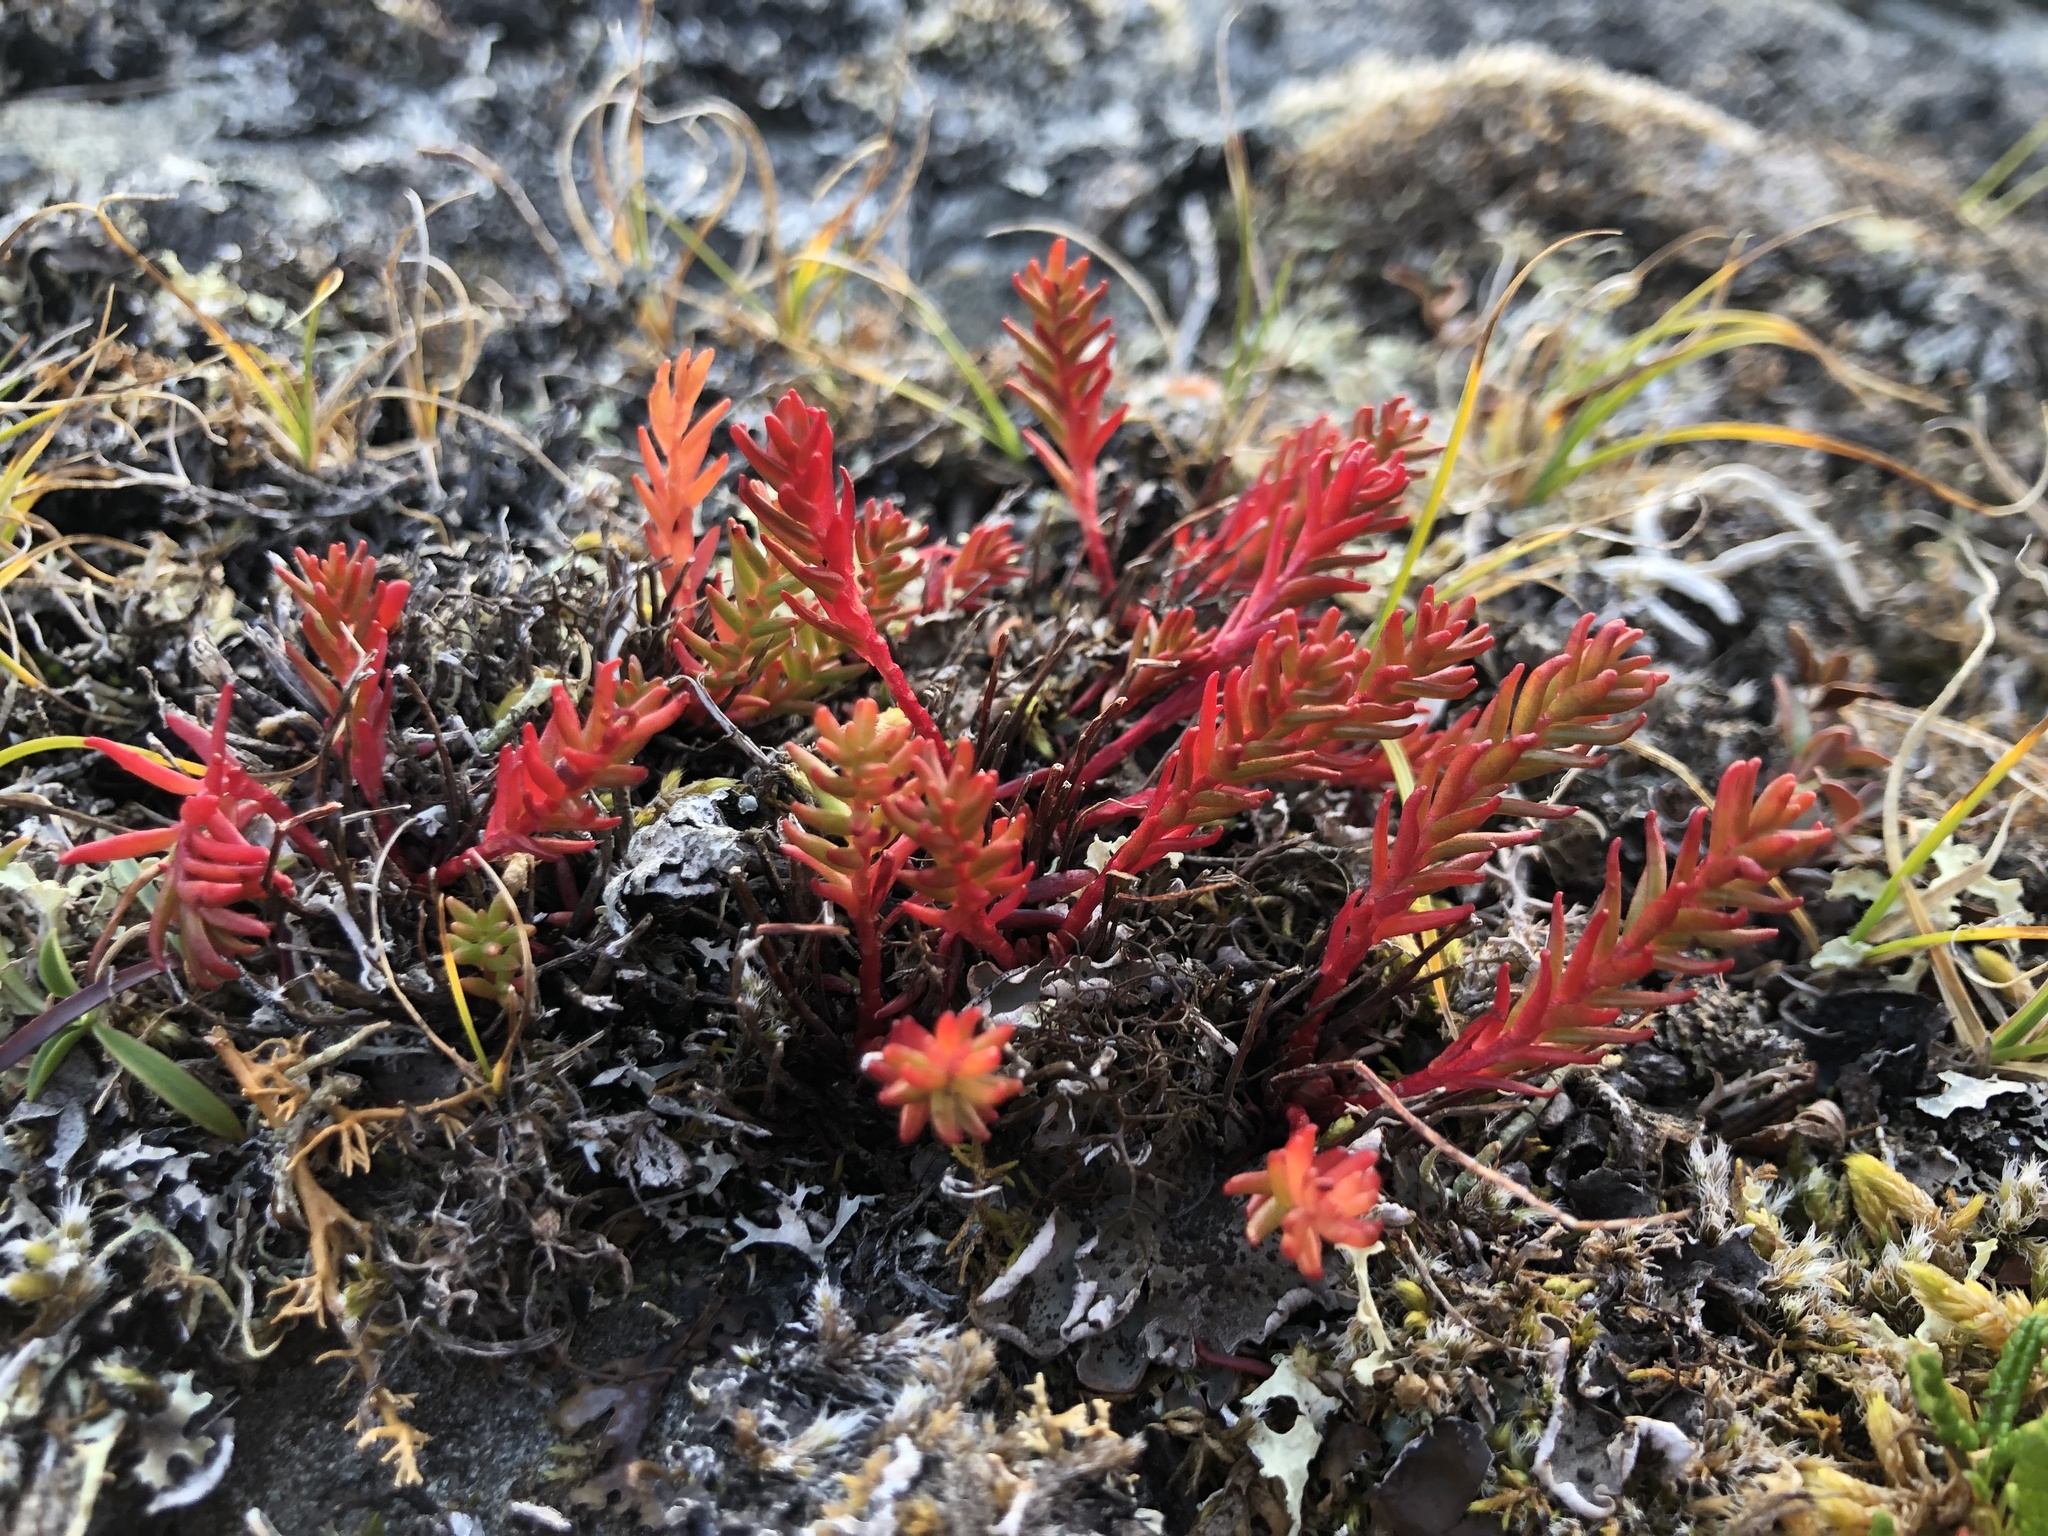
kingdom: Plantae
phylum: Tracheophyta
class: Magnoliopsida
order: Saxifragales
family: Crassulaceae
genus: Rhodiola
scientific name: Rhodiola quadrifida
